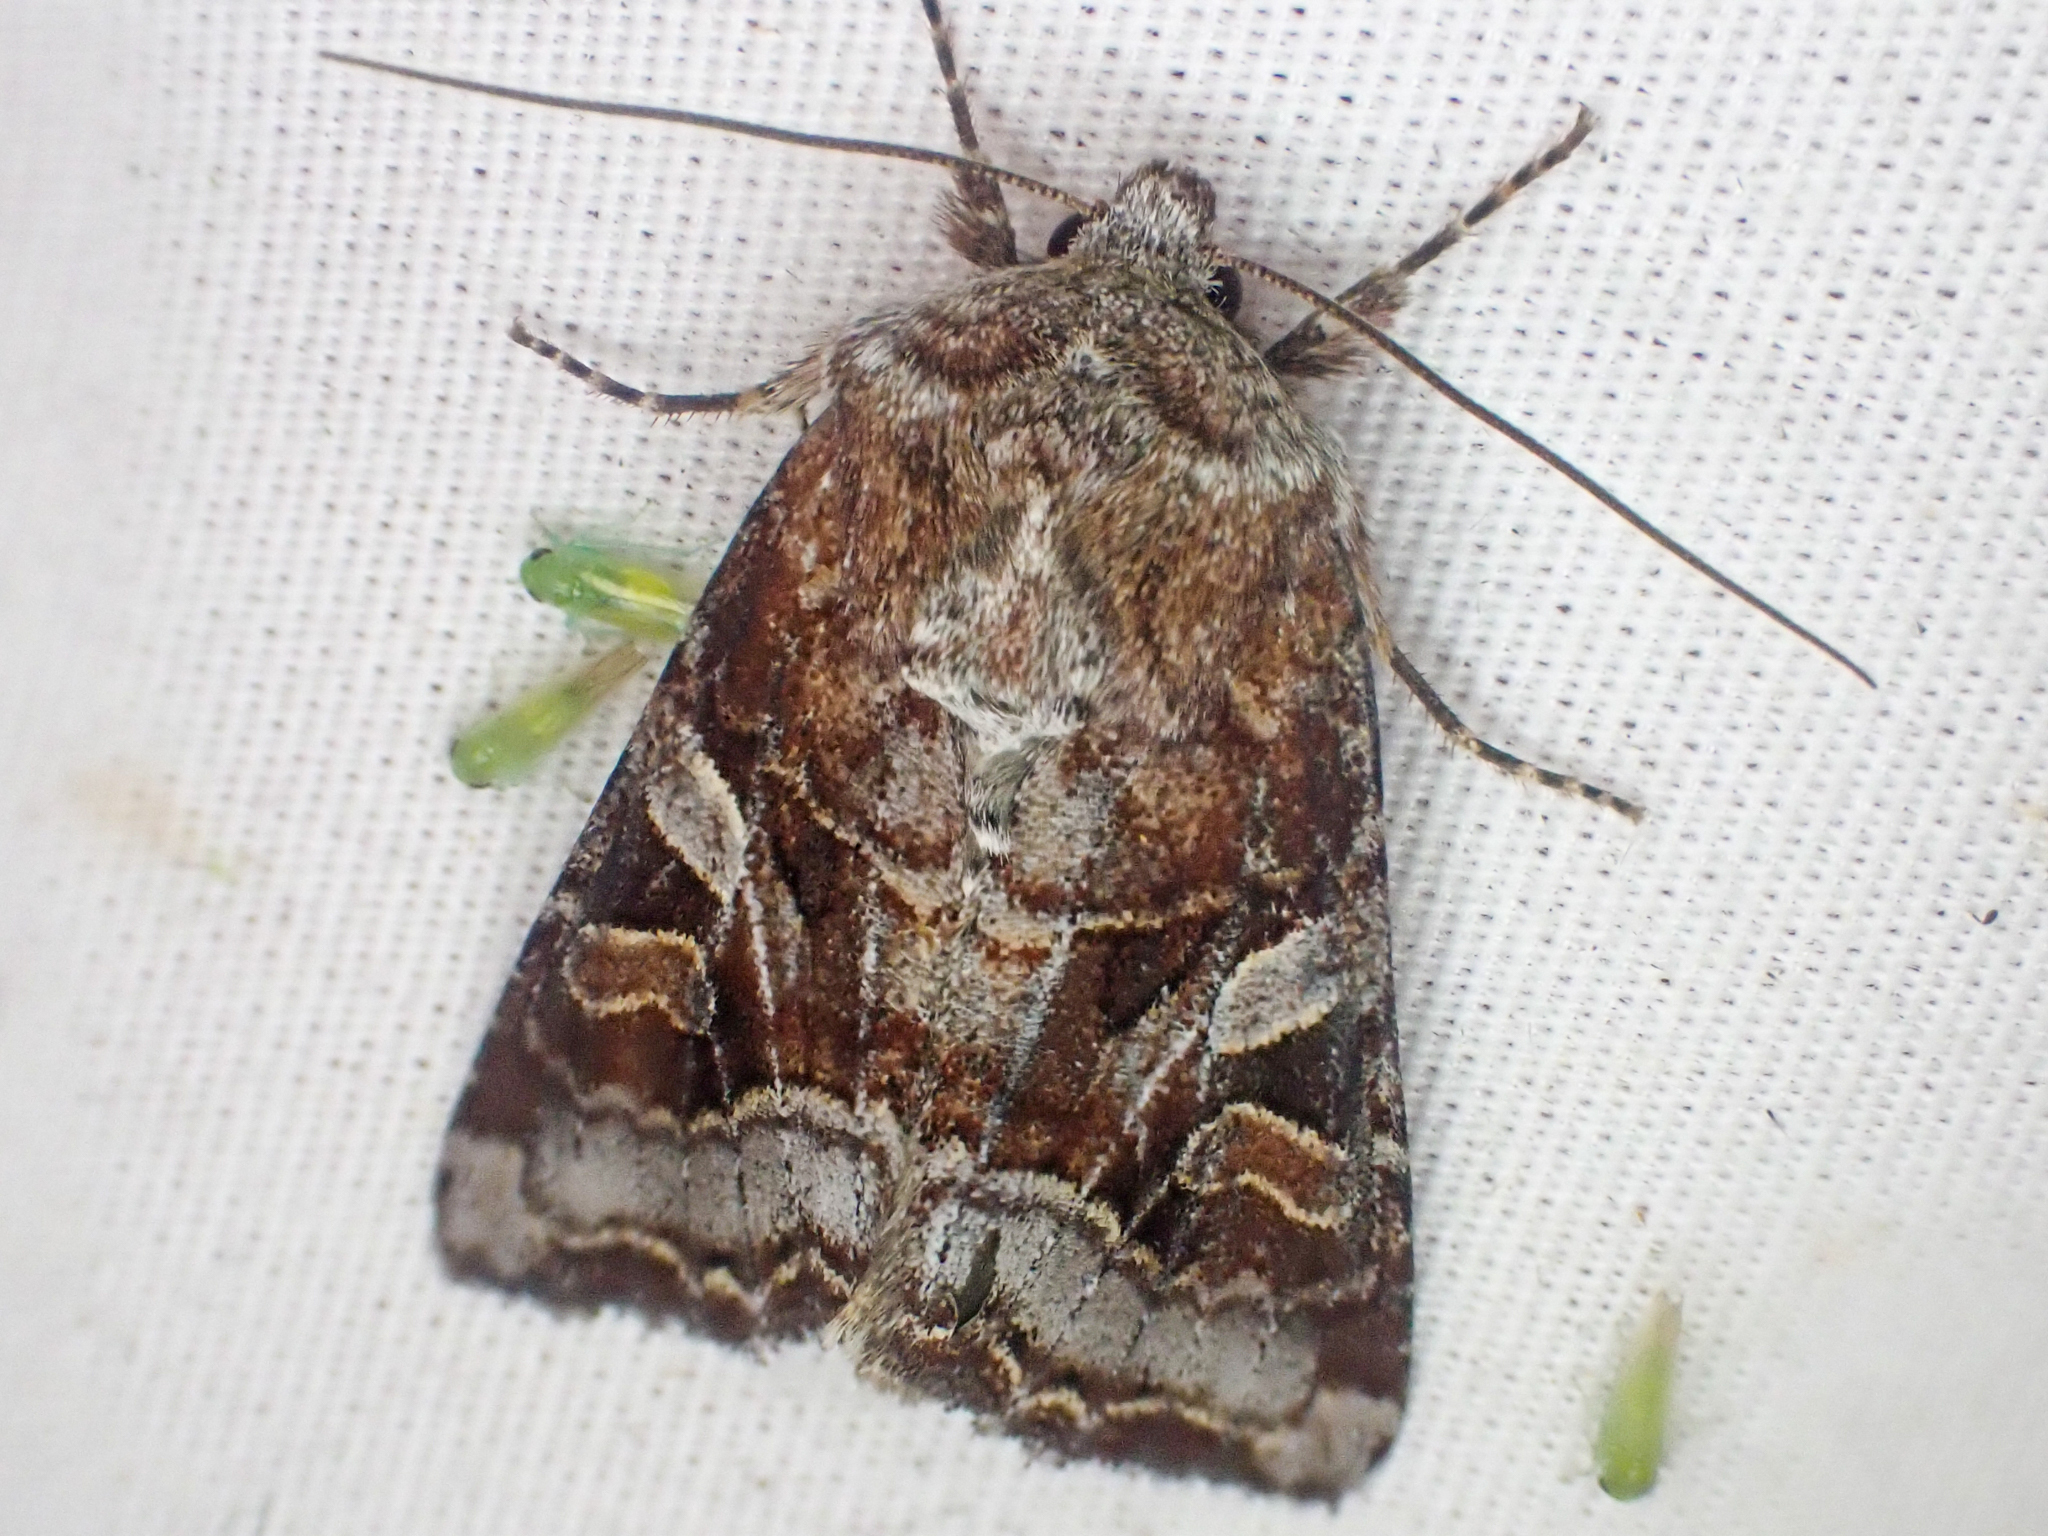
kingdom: Animalia
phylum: Arthropoda
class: Insecta
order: Lepidoptera
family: Noctuidae
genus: Trichordestra
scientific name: Trichordestra tacoma
